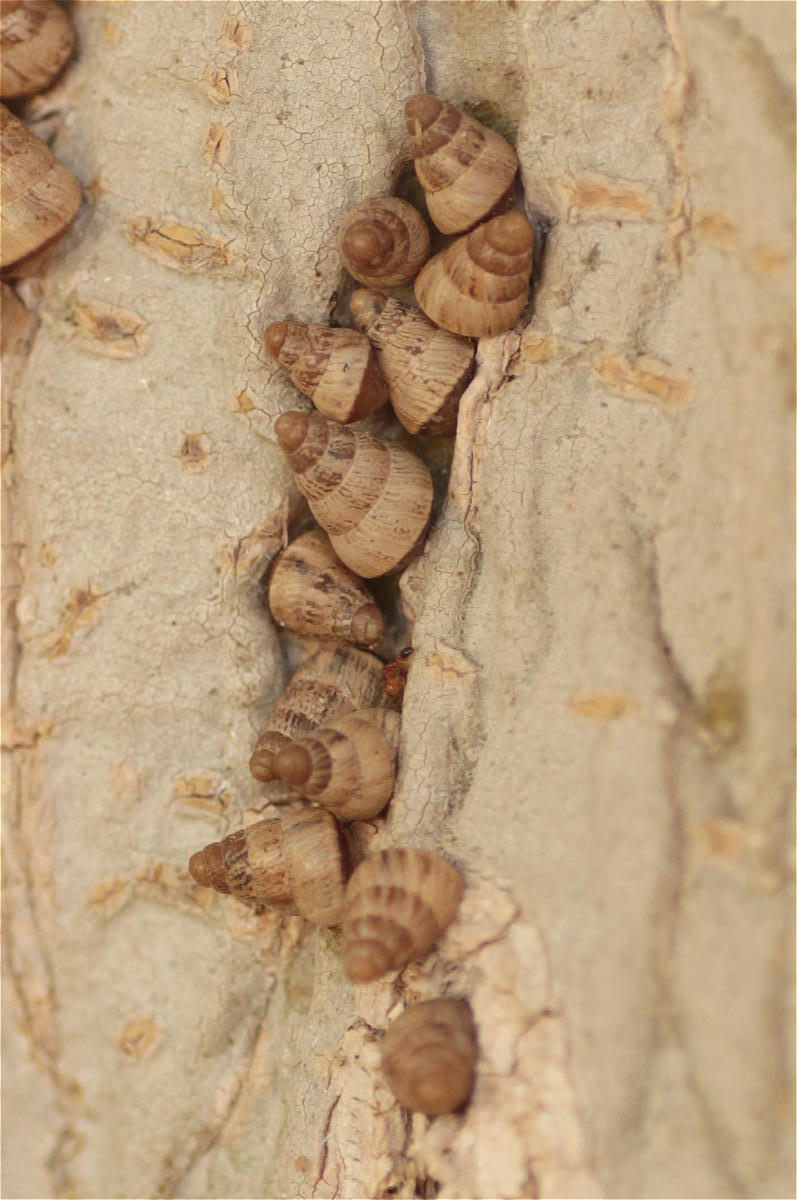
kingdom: Animalia
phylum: Mollusca
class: Gastropoda
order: Stylommatophora
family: Geomitridae
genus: Cochlicella
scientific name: Cochlicella barbara
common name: Potbellied helicellid
